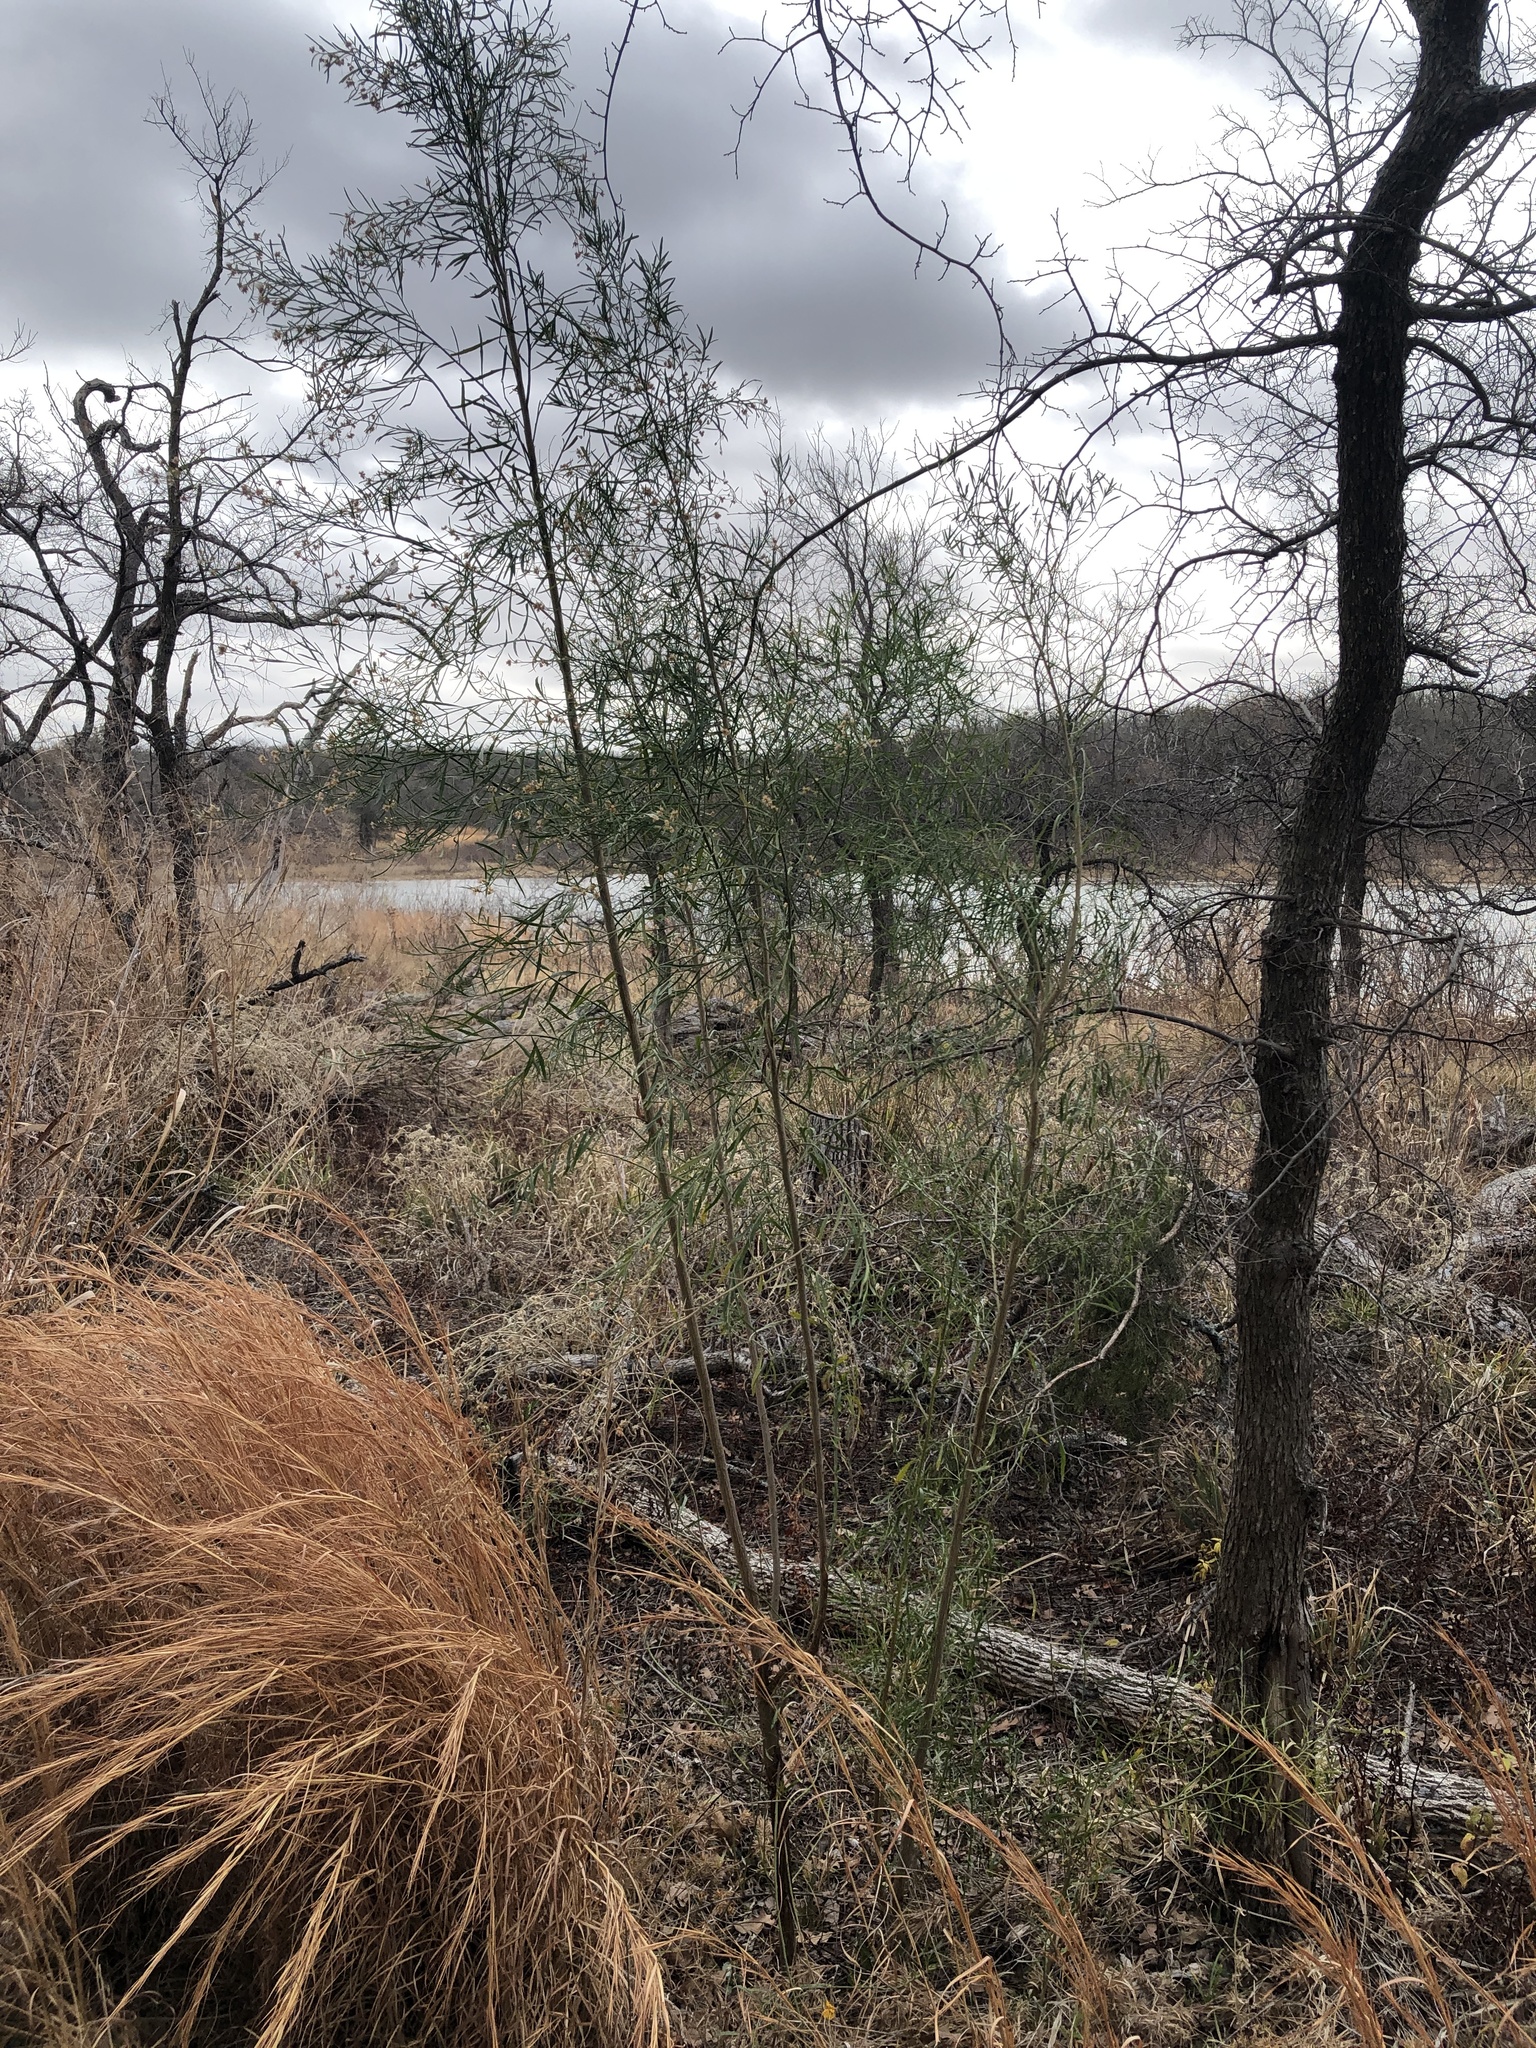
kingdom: Plantae
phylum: Tracheophyta
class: Magnoliopsida
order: Asterales
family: Asteraceae
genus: Baccharis
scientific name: Baccharis neglecta
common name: Roosevelt-weed
